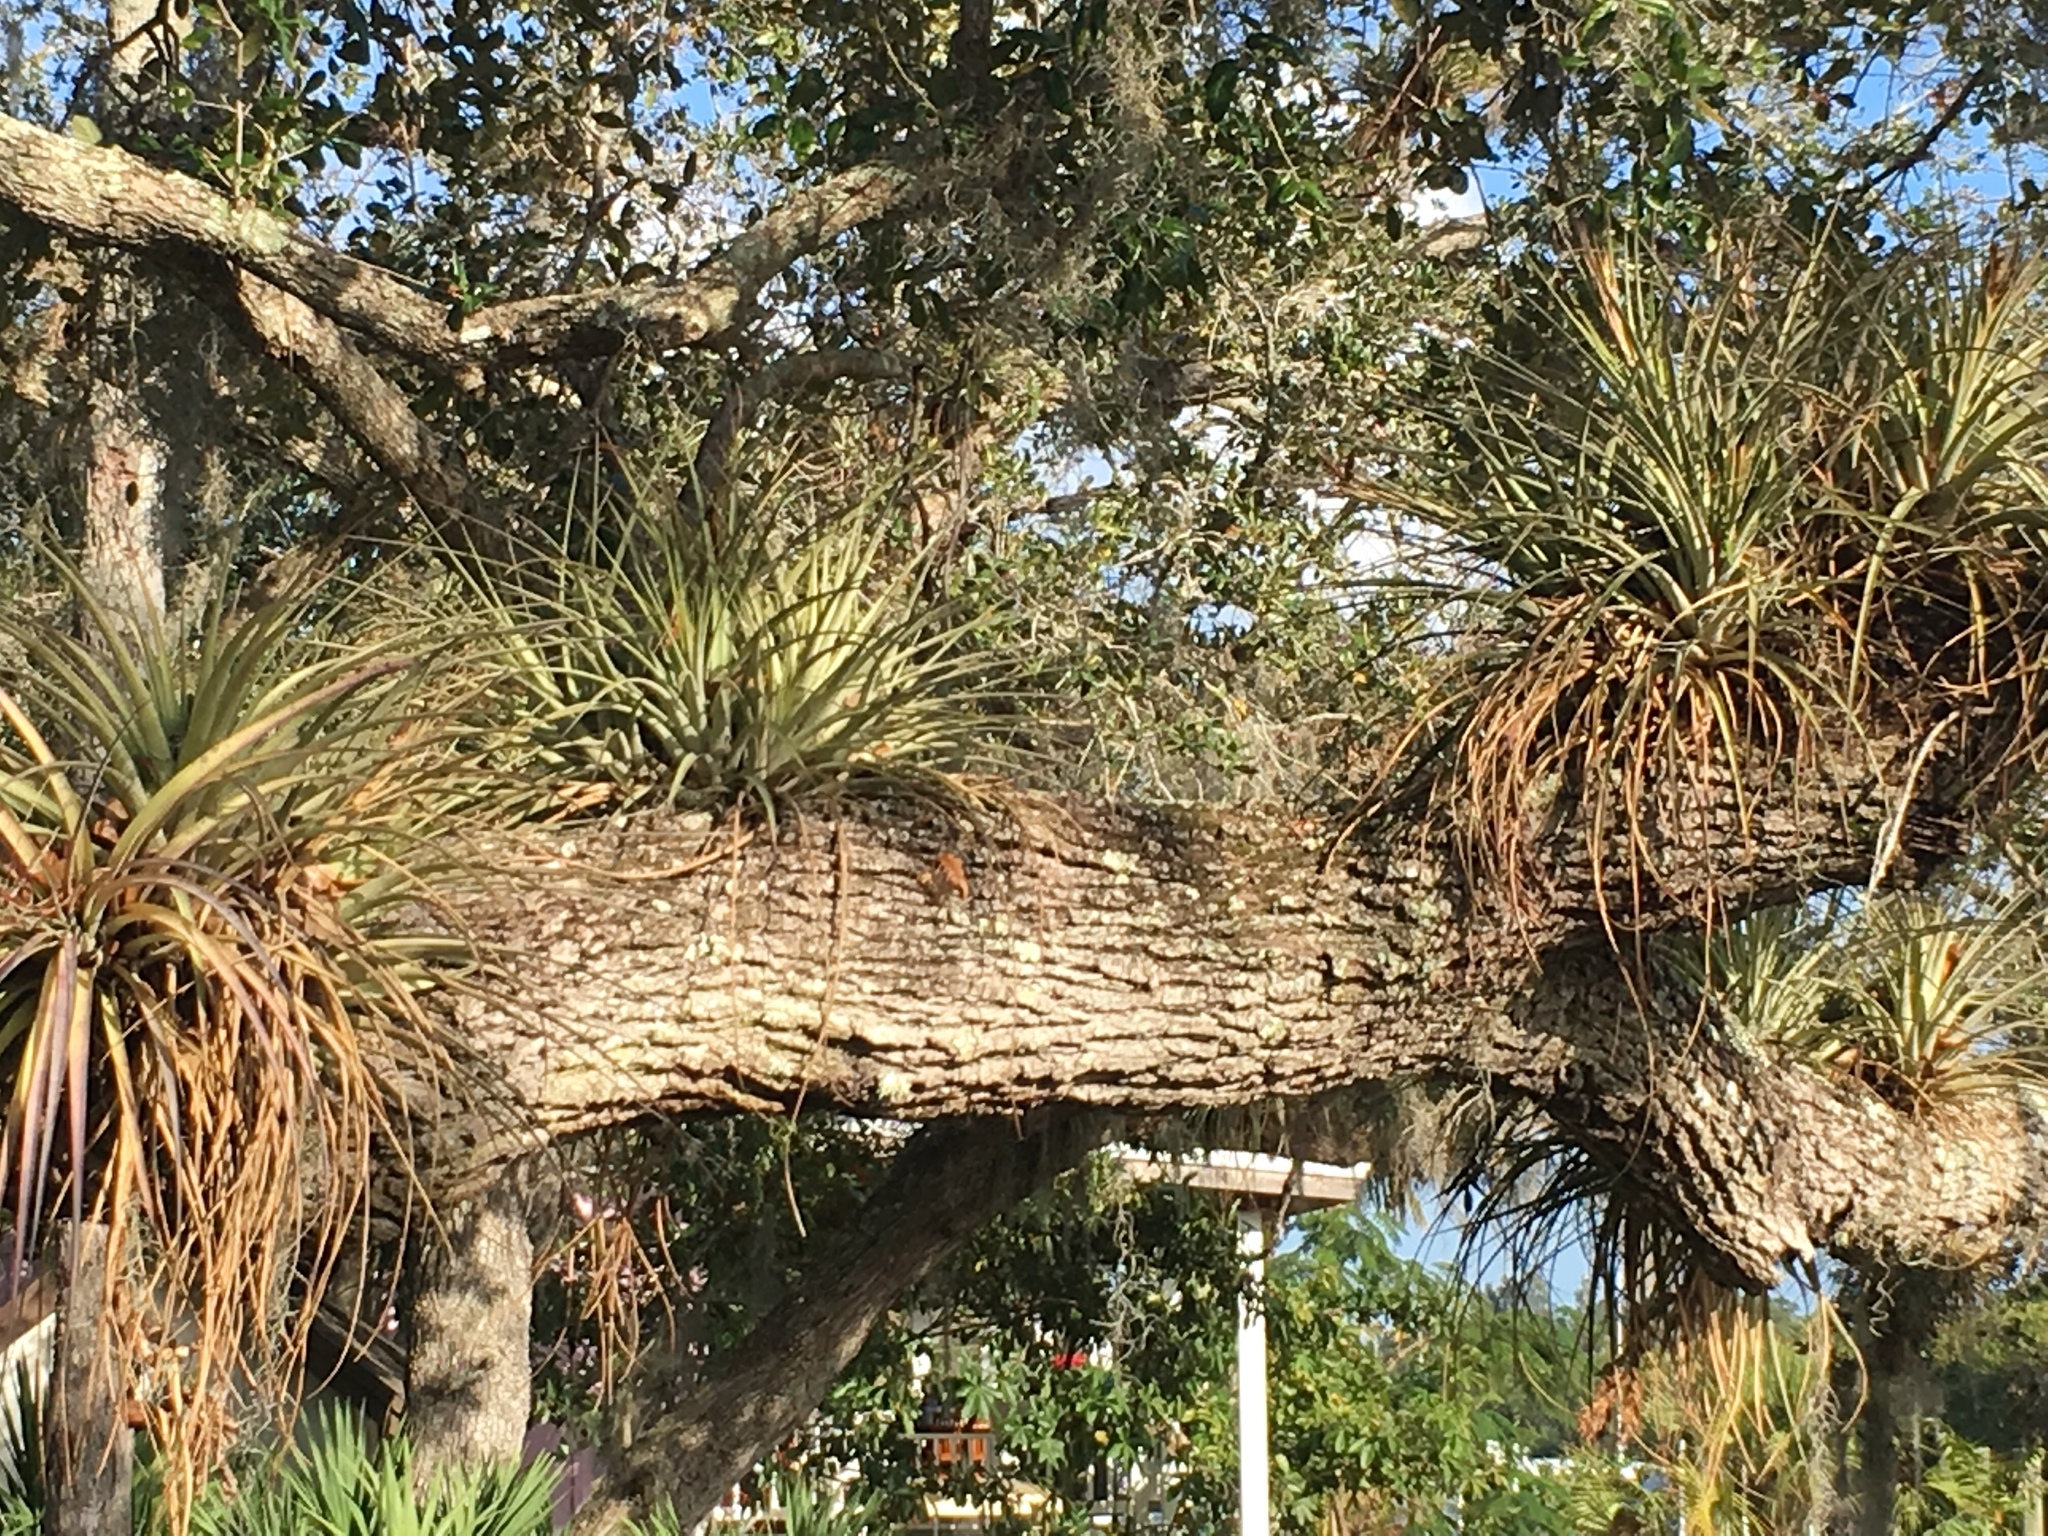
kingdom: Plantae
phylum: Tracheophyta
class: Liliopsida
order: Poales
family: Bromeliaceae
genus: Tillandsia
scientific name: Tillandsia fasciculata
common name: Giant airplant
